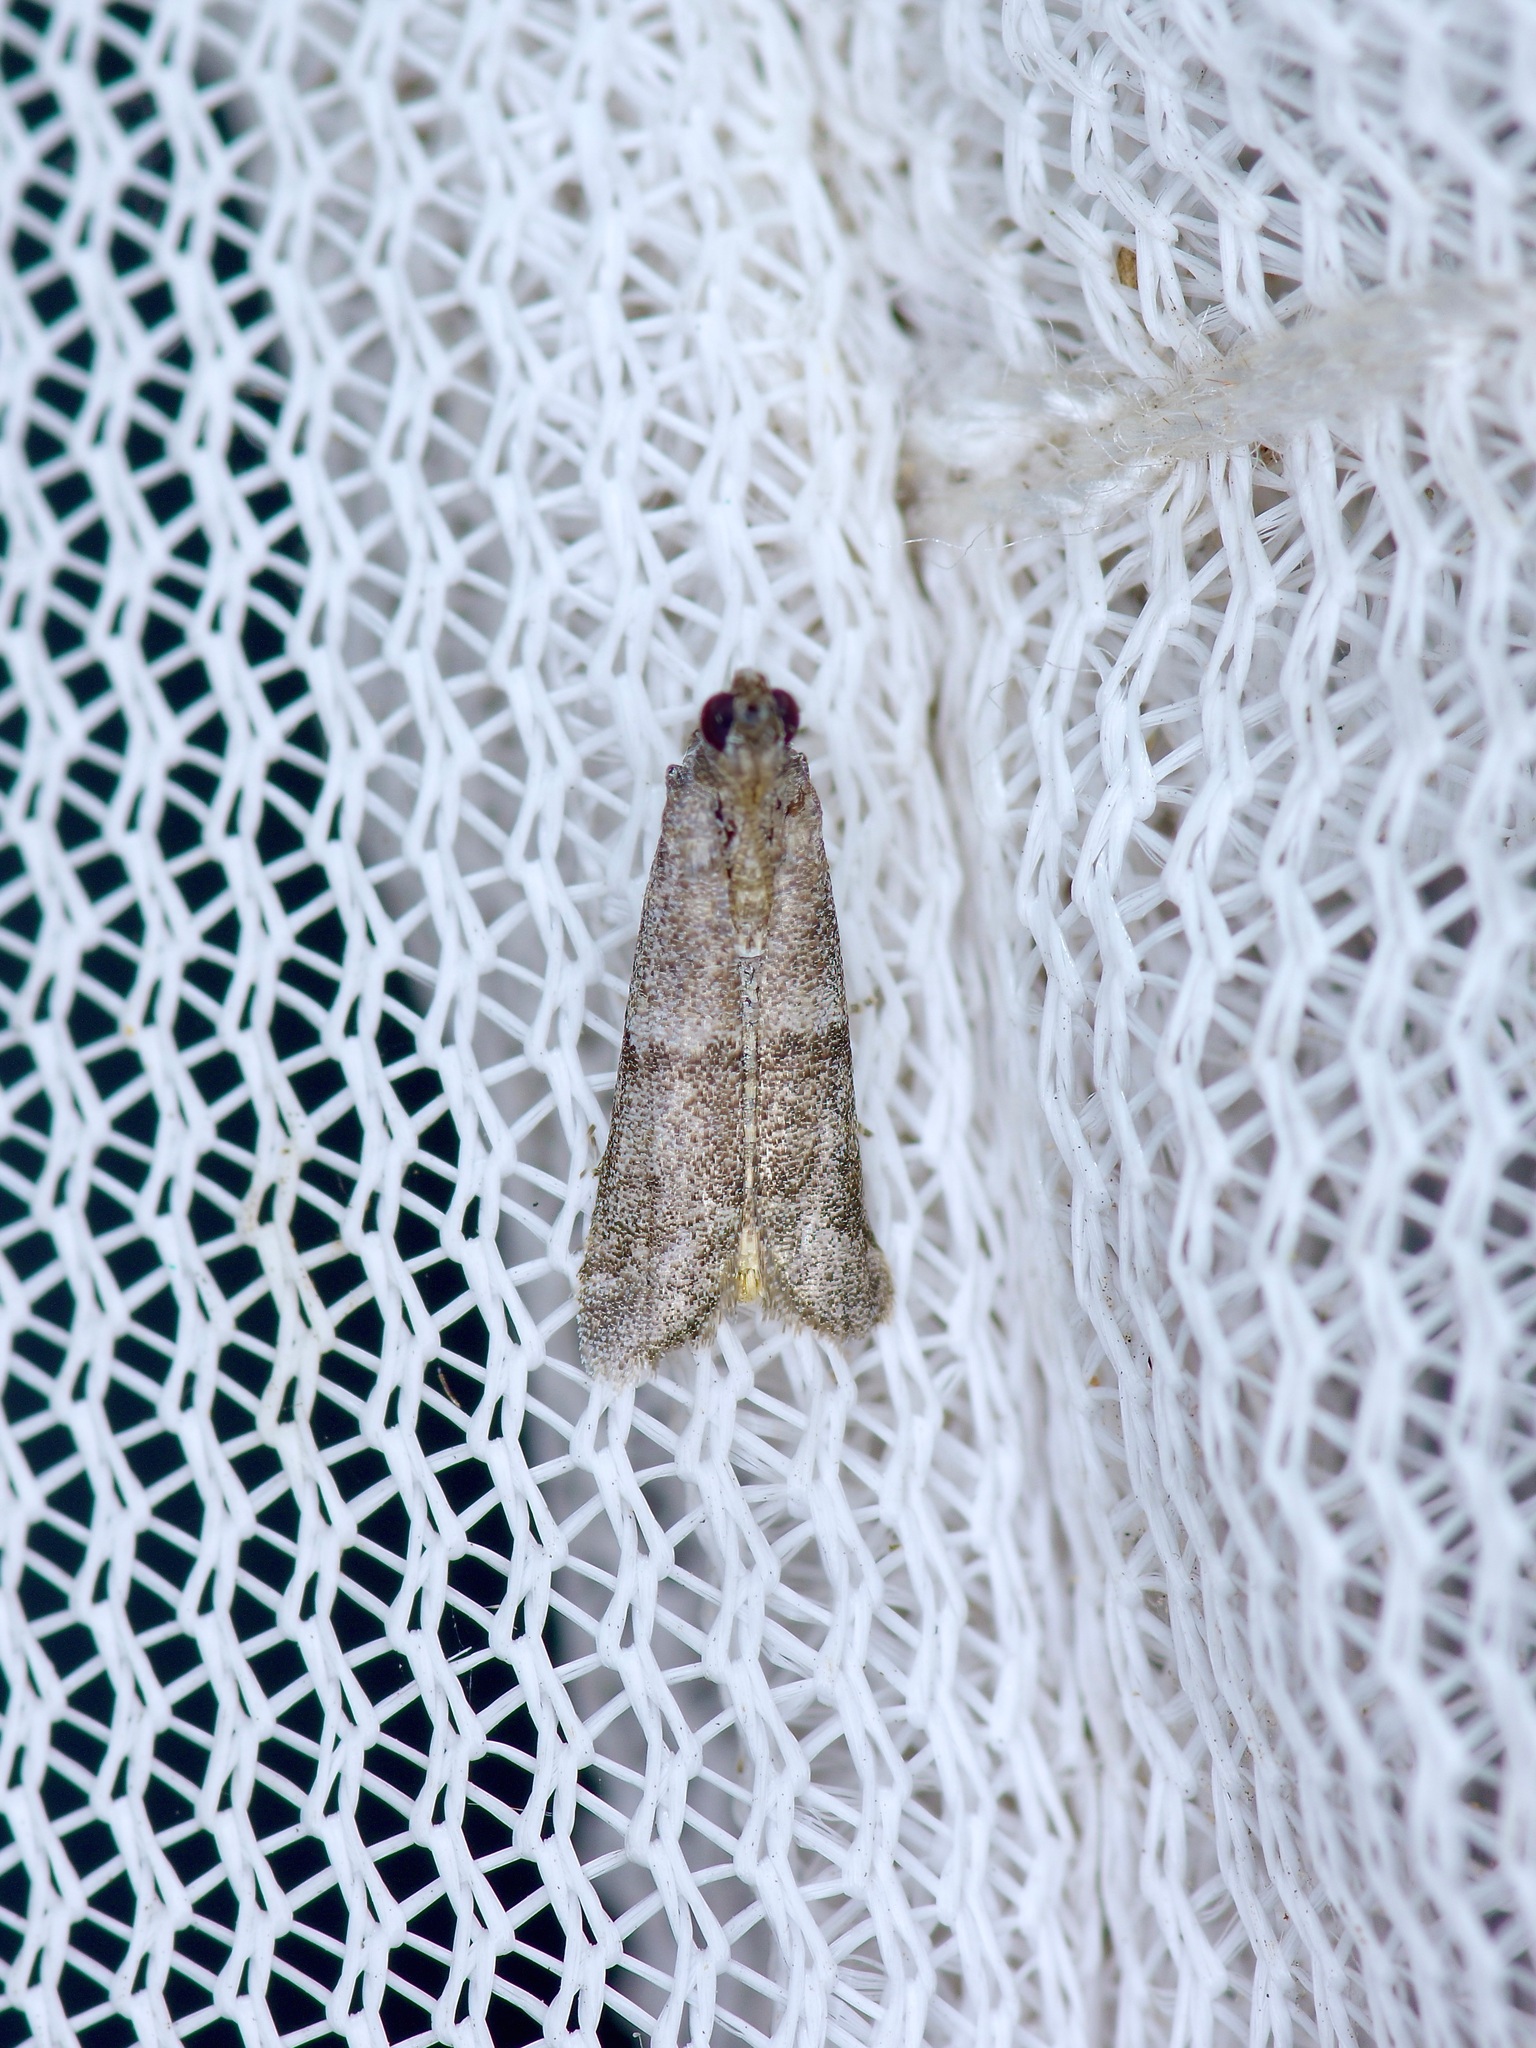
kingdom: Animalia
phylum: Arthropoda
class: Insecta
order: Lepidoptera
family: Pyralidae
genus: Ephestiodes
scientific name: Ephestiodes gilvescentella
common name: Moth
